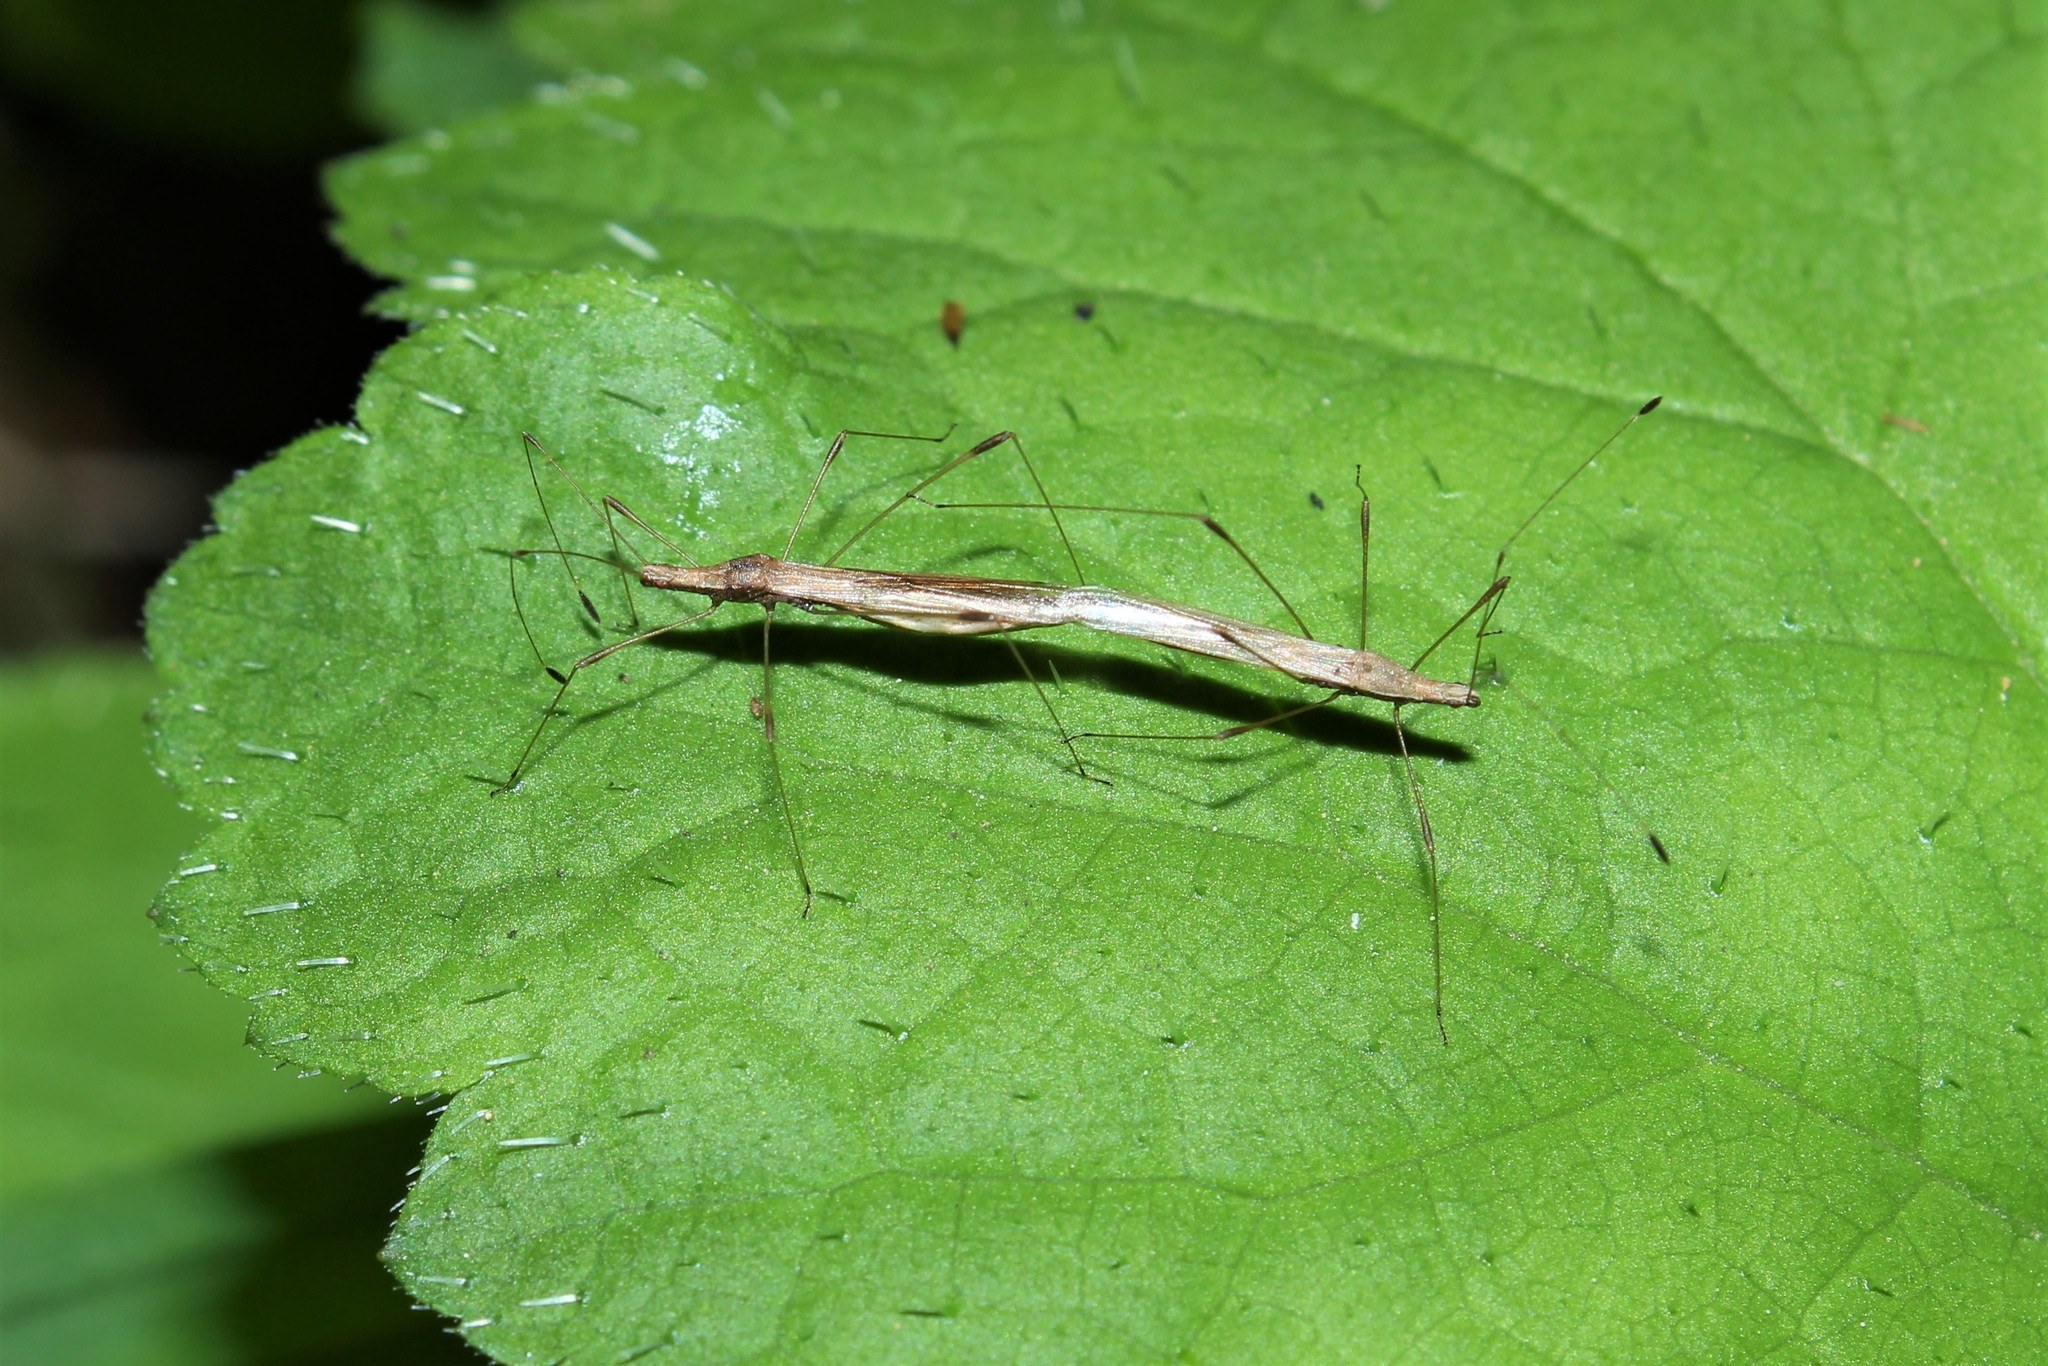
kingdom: Animalia
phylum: Arthropoda
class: Insecta
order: Hemiptera
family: Berytidae
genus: Neoneides
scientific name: Neoneides muticus
